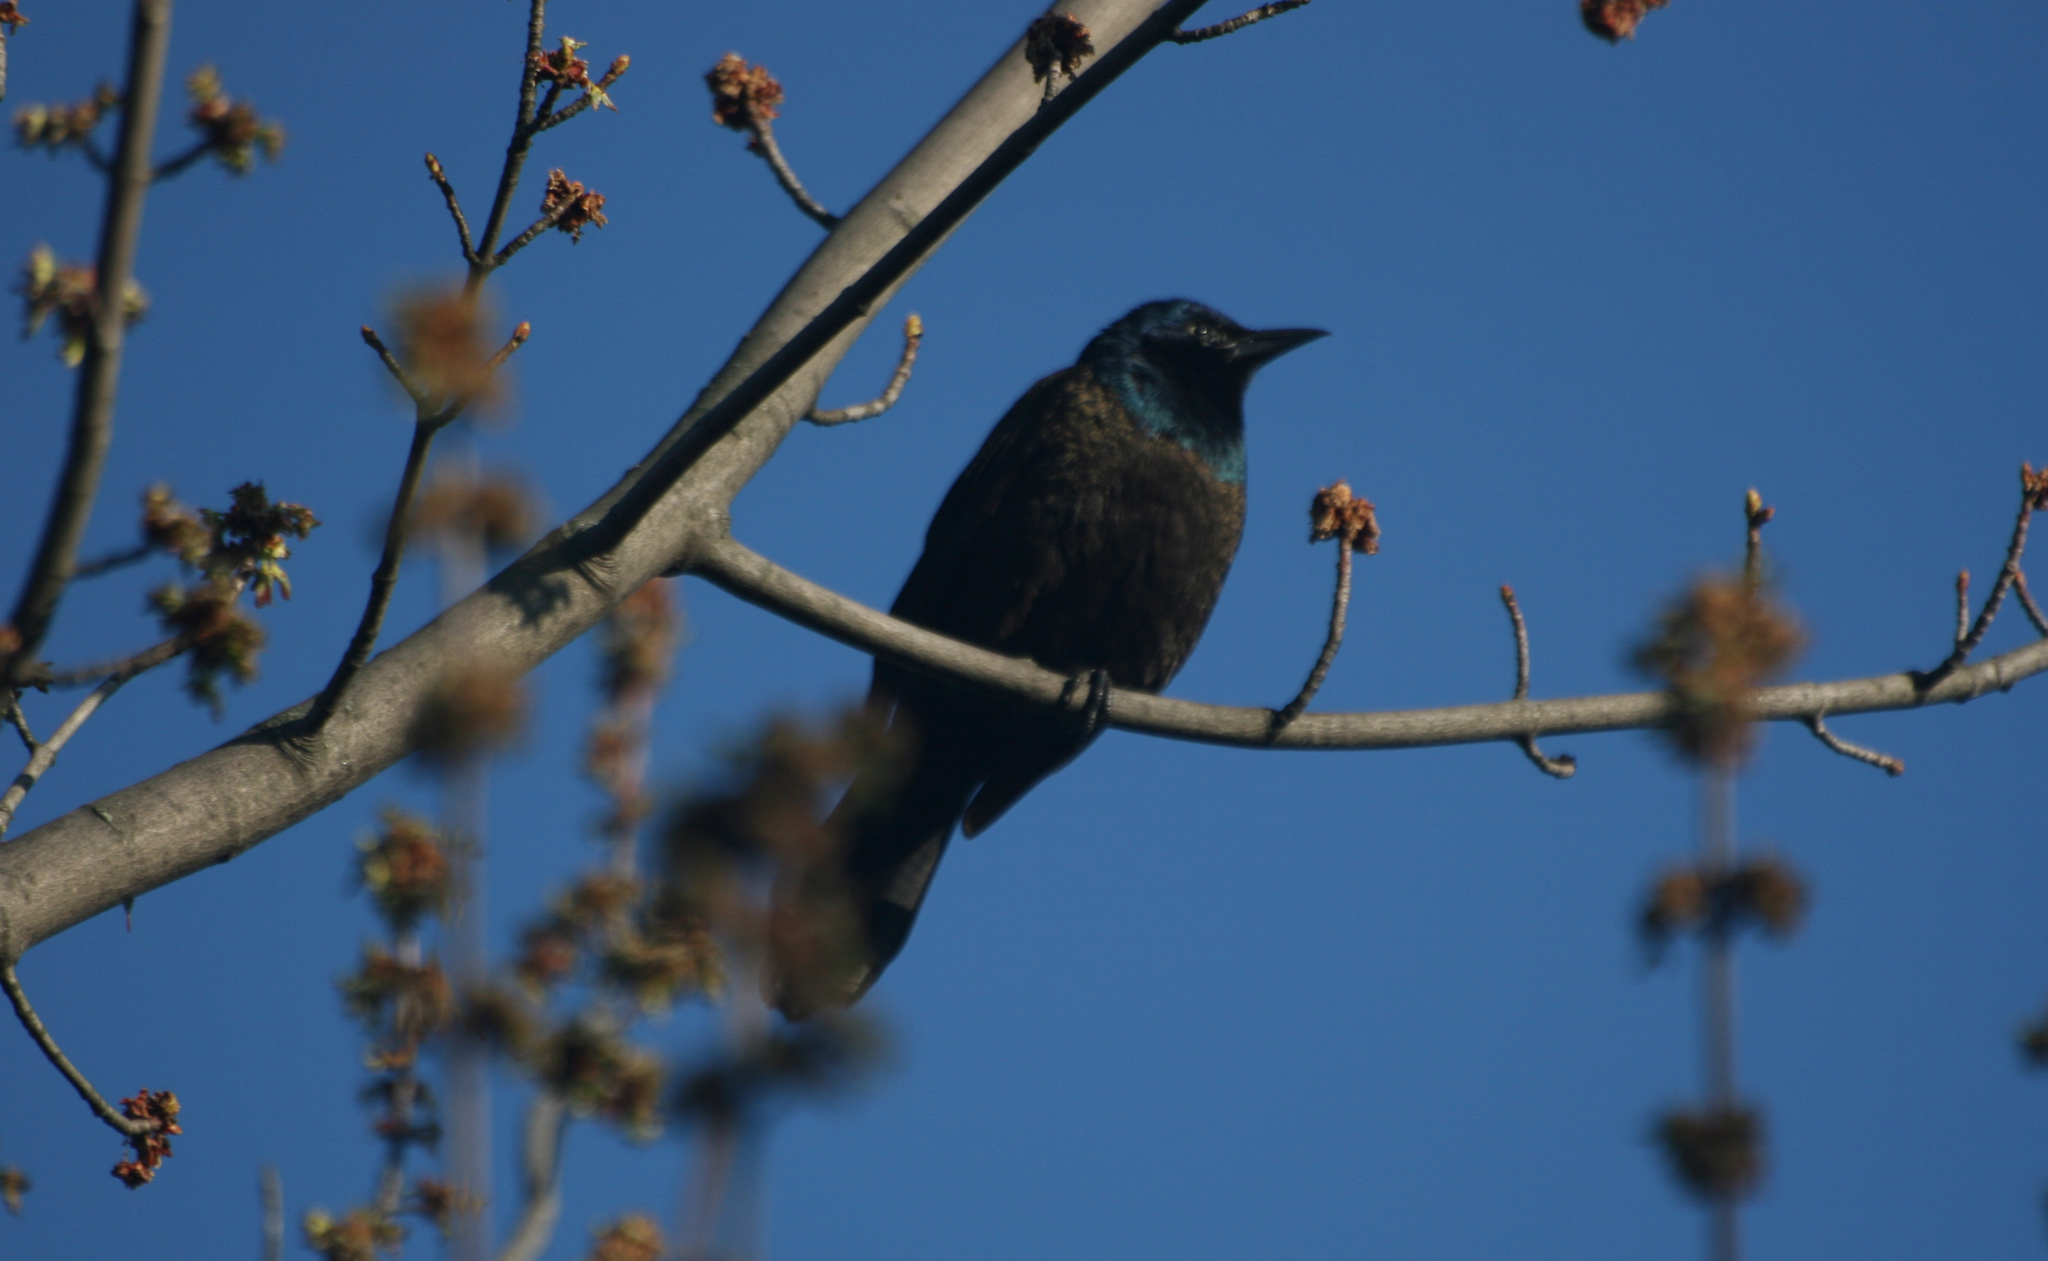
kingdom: Animalia
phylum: Chordata
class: Aves
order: Passeriformes
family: Icteridae
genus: Quiscalus
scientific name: Quiscalus quiscula
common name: Common grackle
